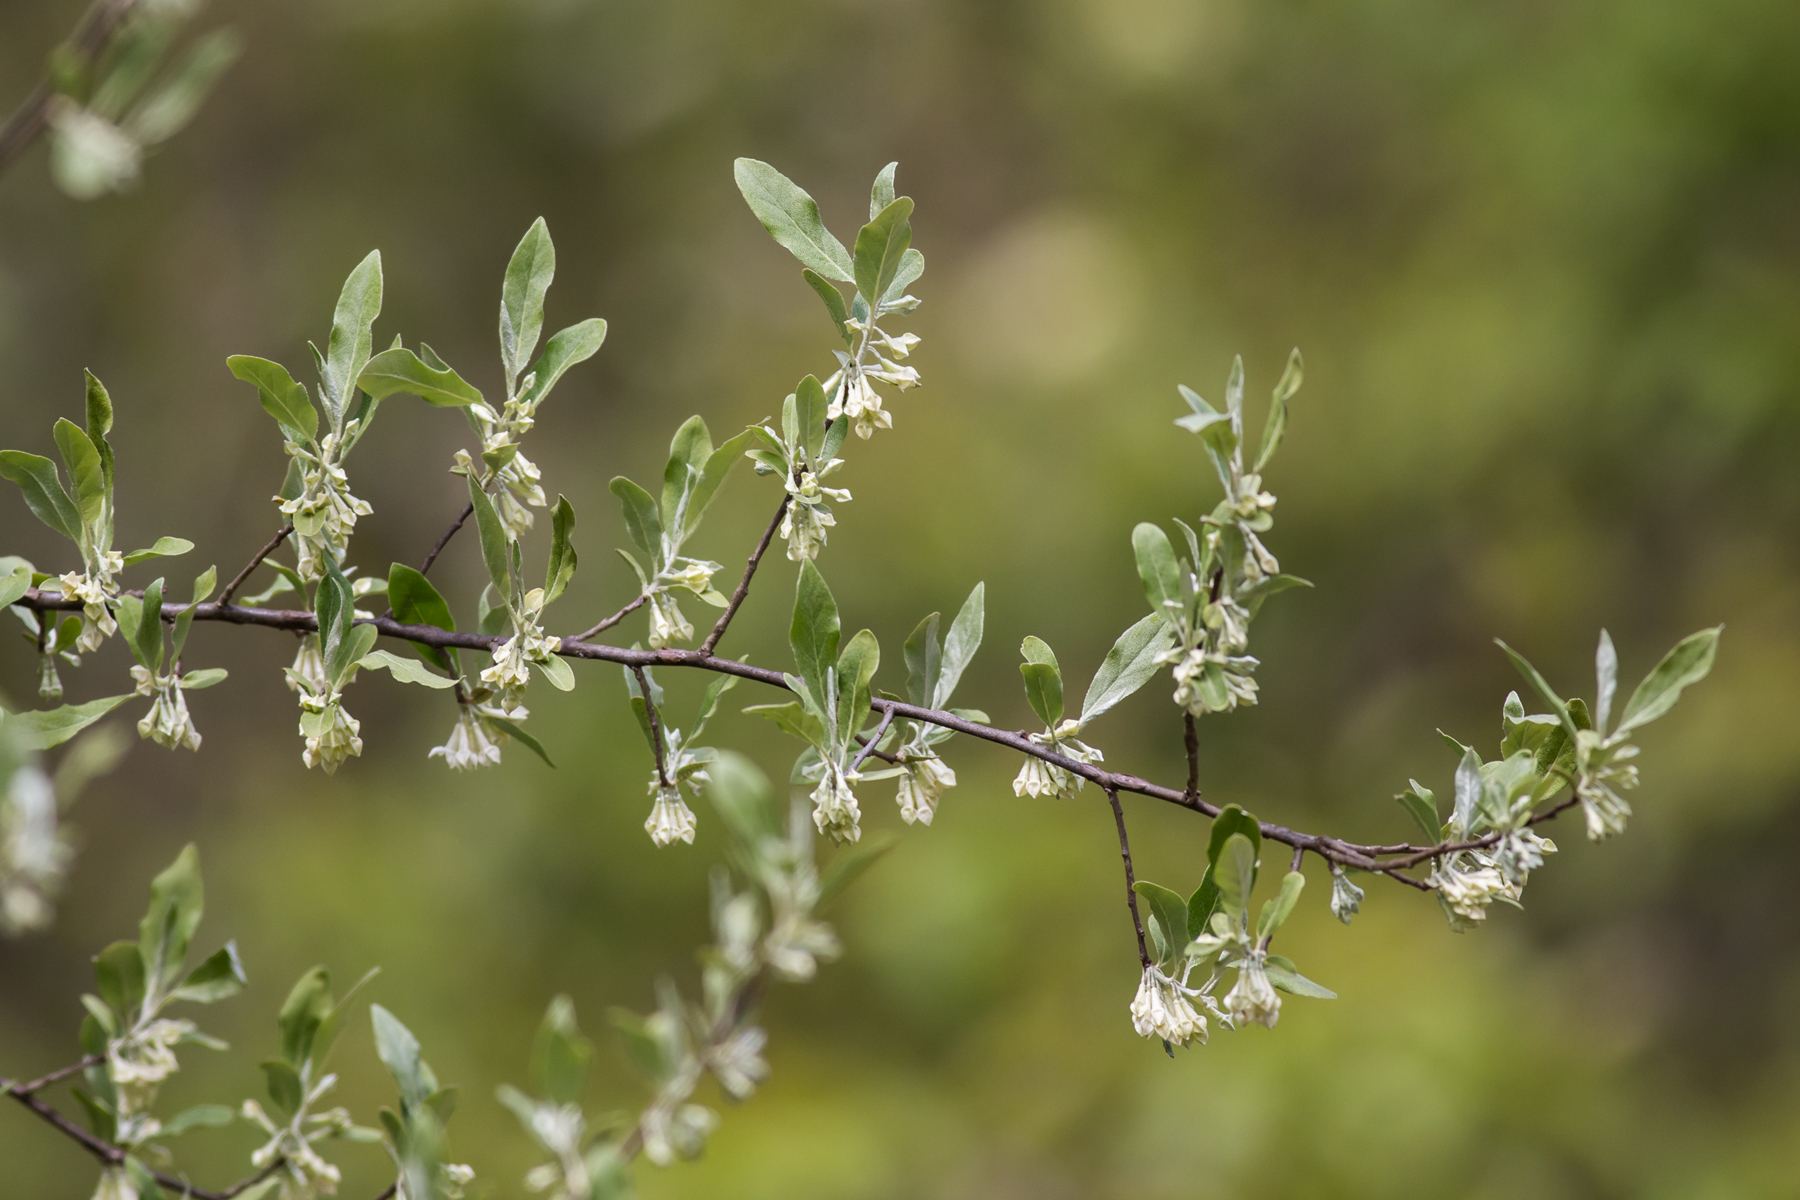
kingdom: Plantae
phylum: Tracheophyta
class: Magnoliopsida
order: Rosales
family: Elaeagnaceae
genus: Elaeagnus
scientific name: Elaeagnus umbellata
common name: Autumn olive
